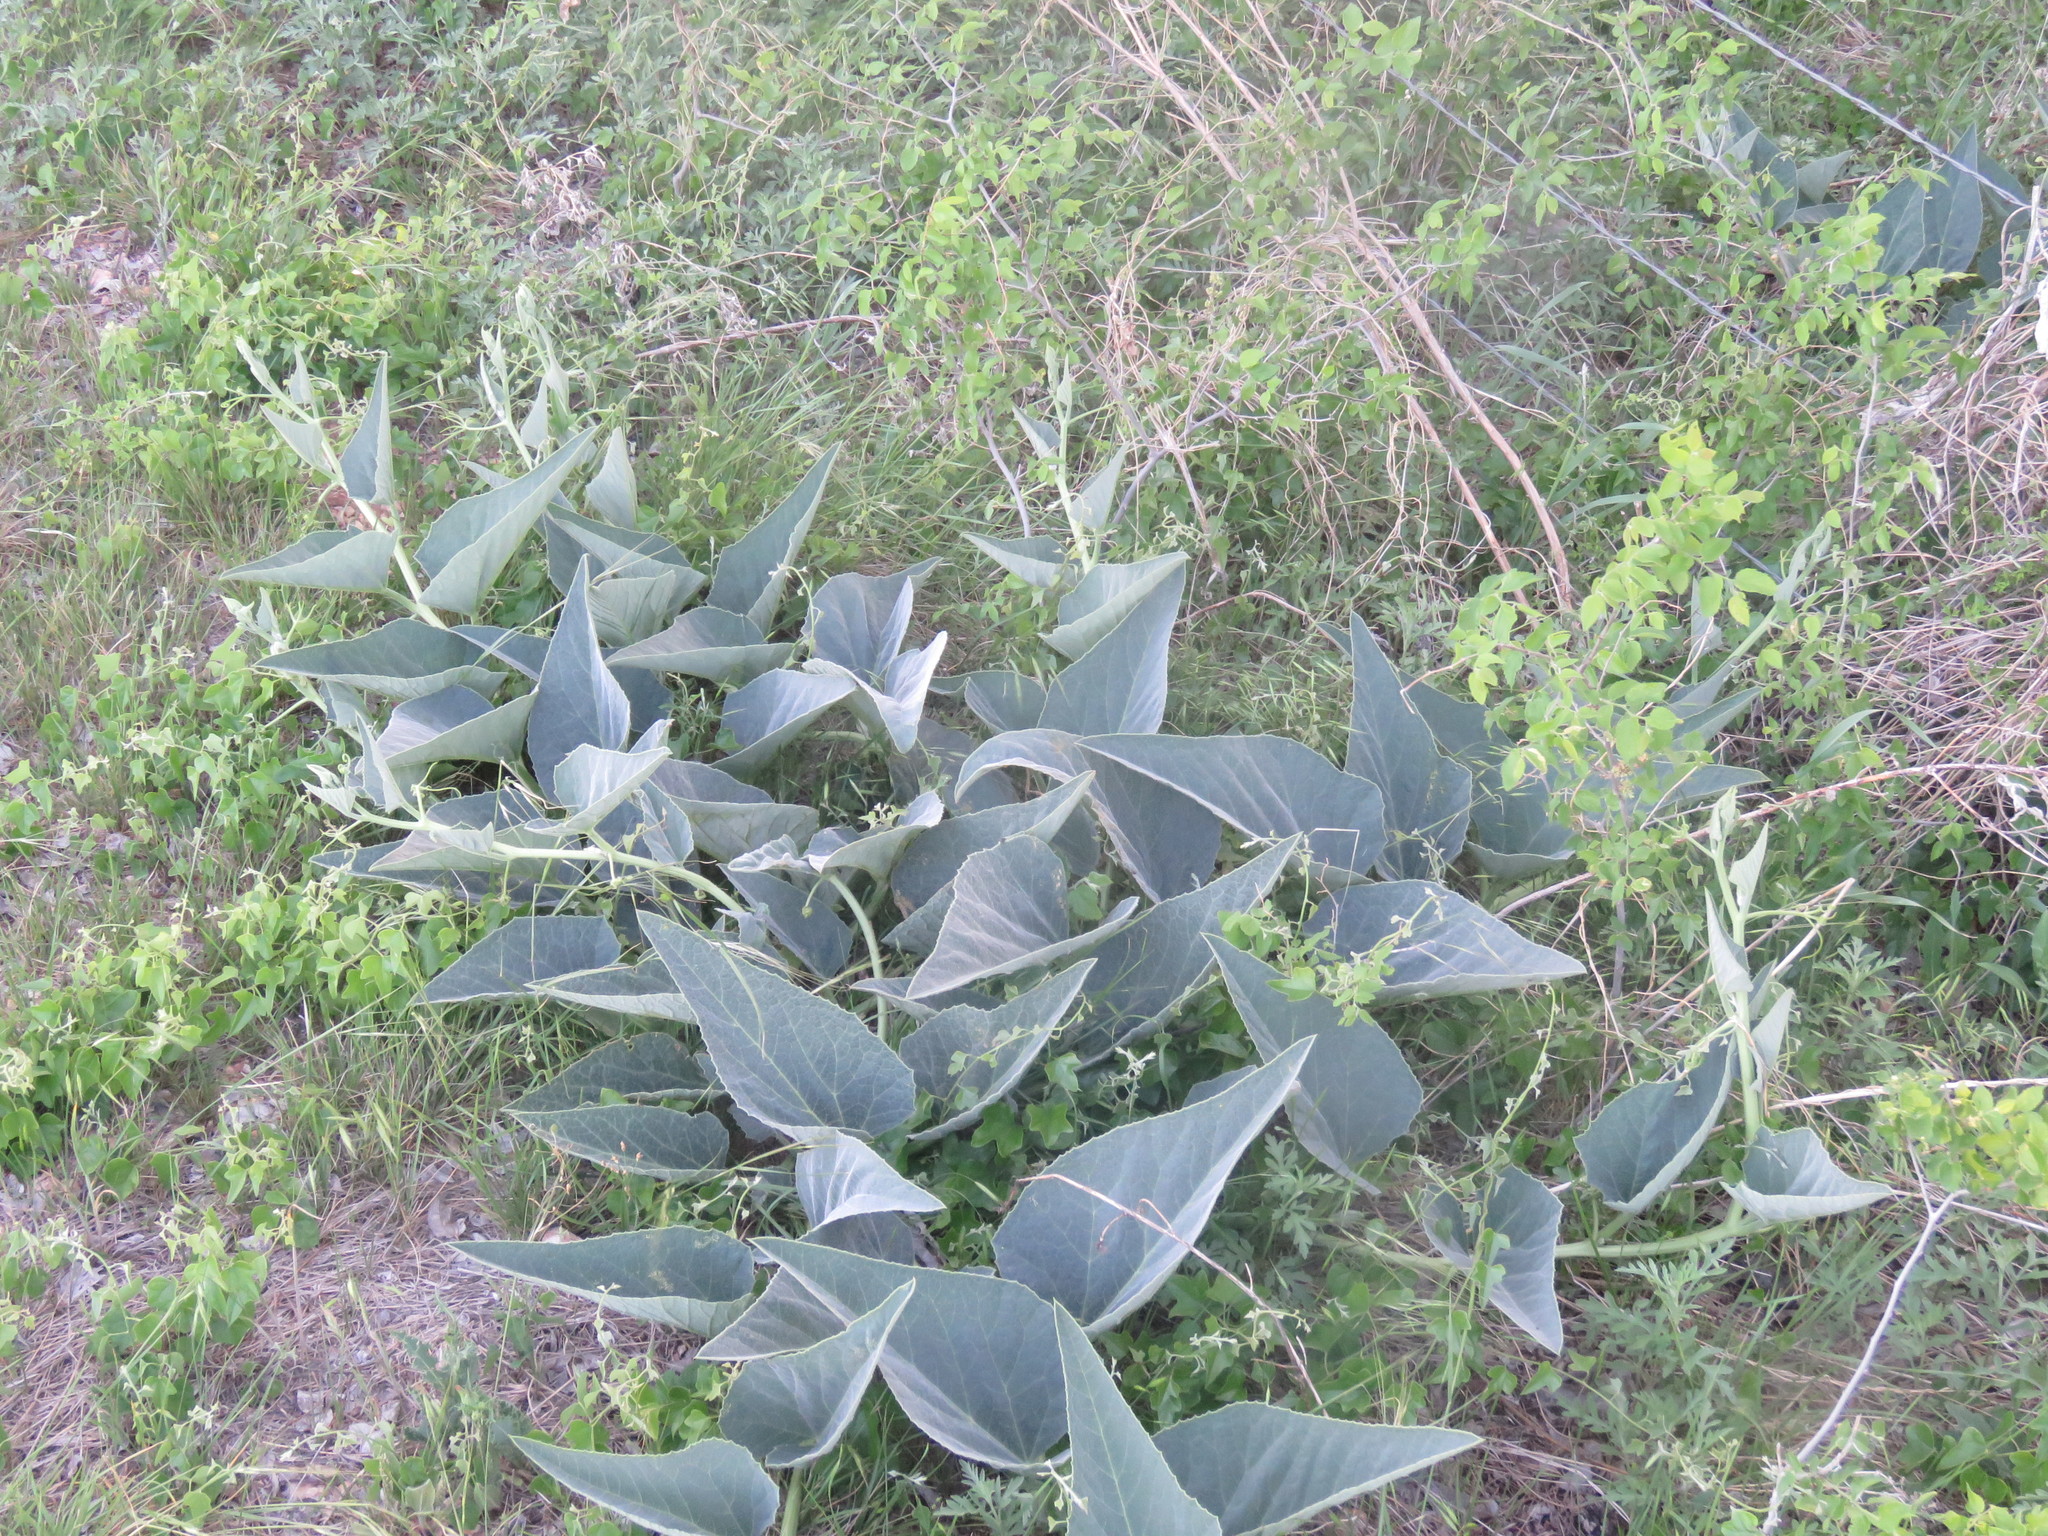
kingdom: Plantae
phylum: Tracheophyta
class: Magnoliopsida
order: Cucurbitales
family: Cucurbitaceae
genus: Cucurbita
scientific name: Cucurbita foetidissima
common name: Buffalo gourd
